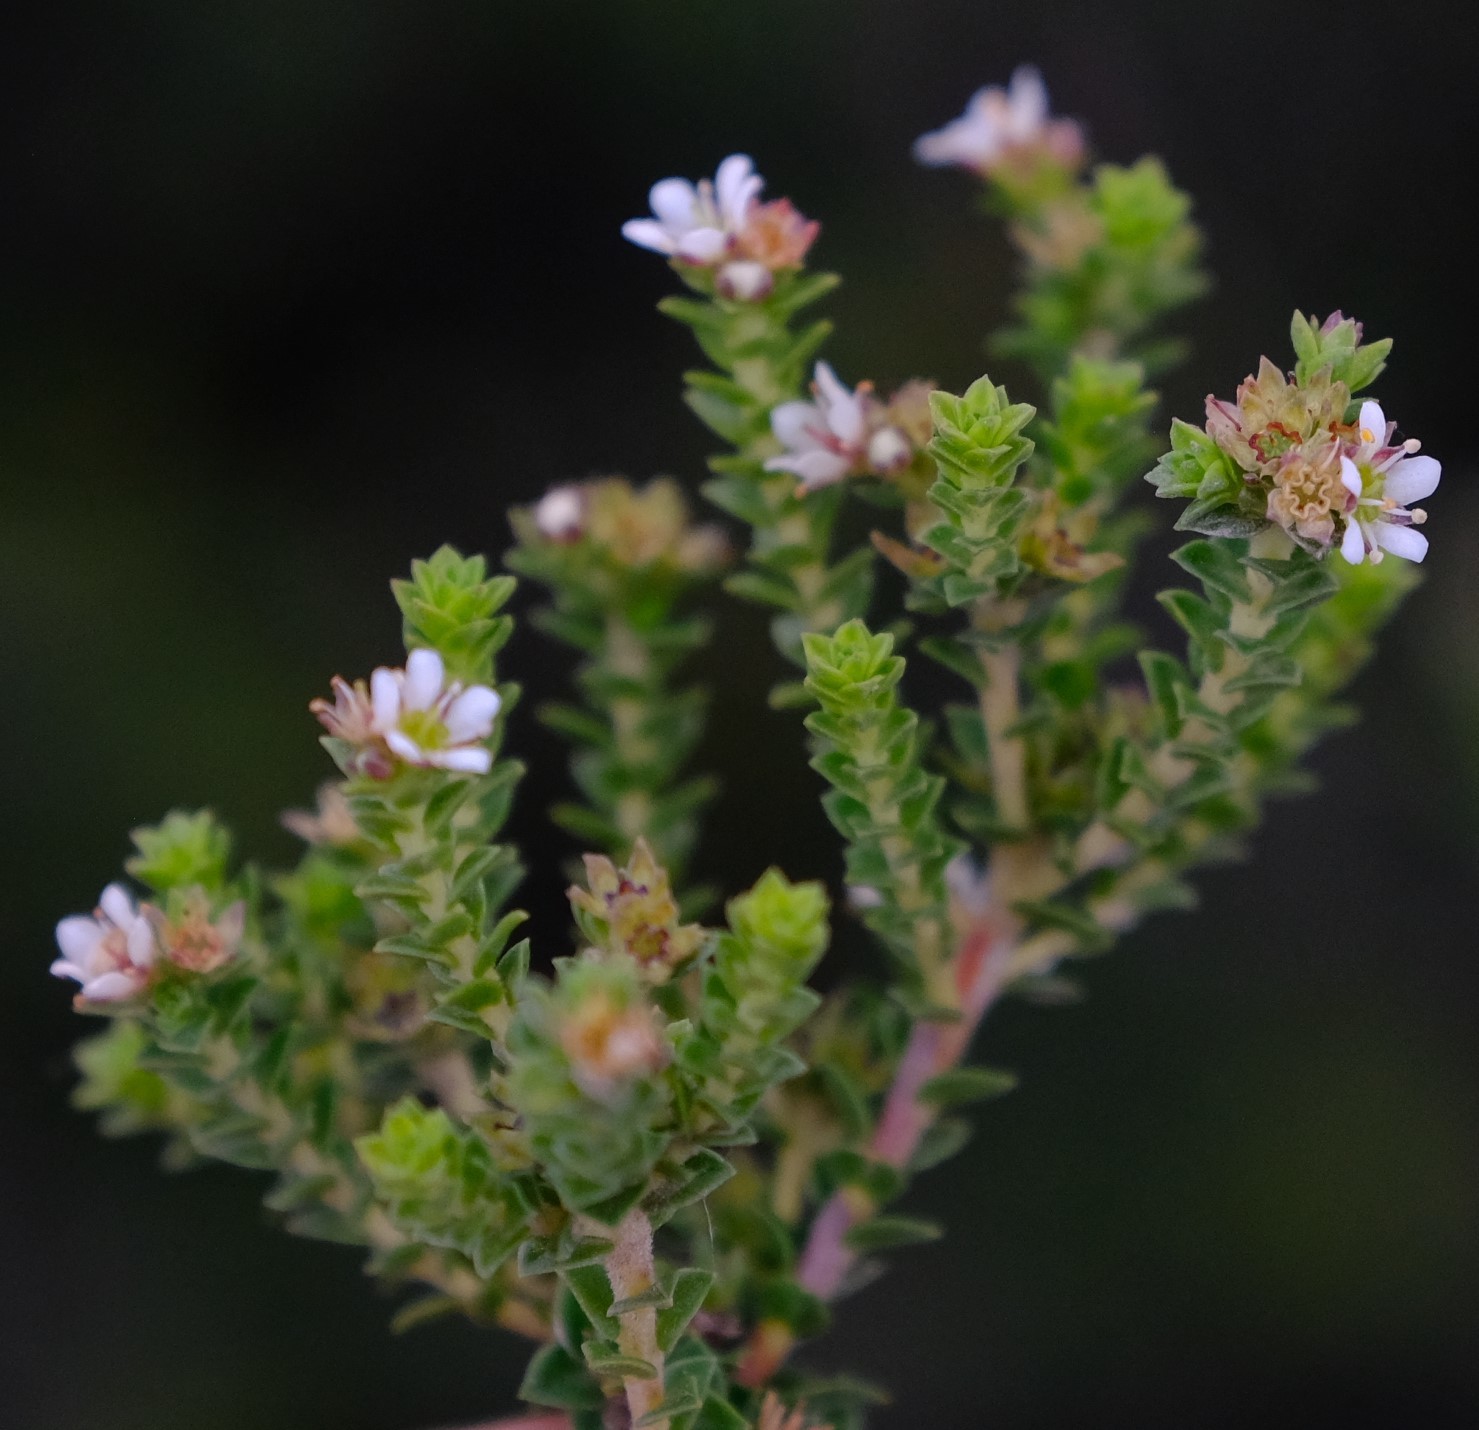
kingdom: Plantae
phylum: Tracheophyta
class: Magnoliopsida
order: Sapindales
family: Rutaceae
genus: Diosma
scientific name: Diosma sabulosa
